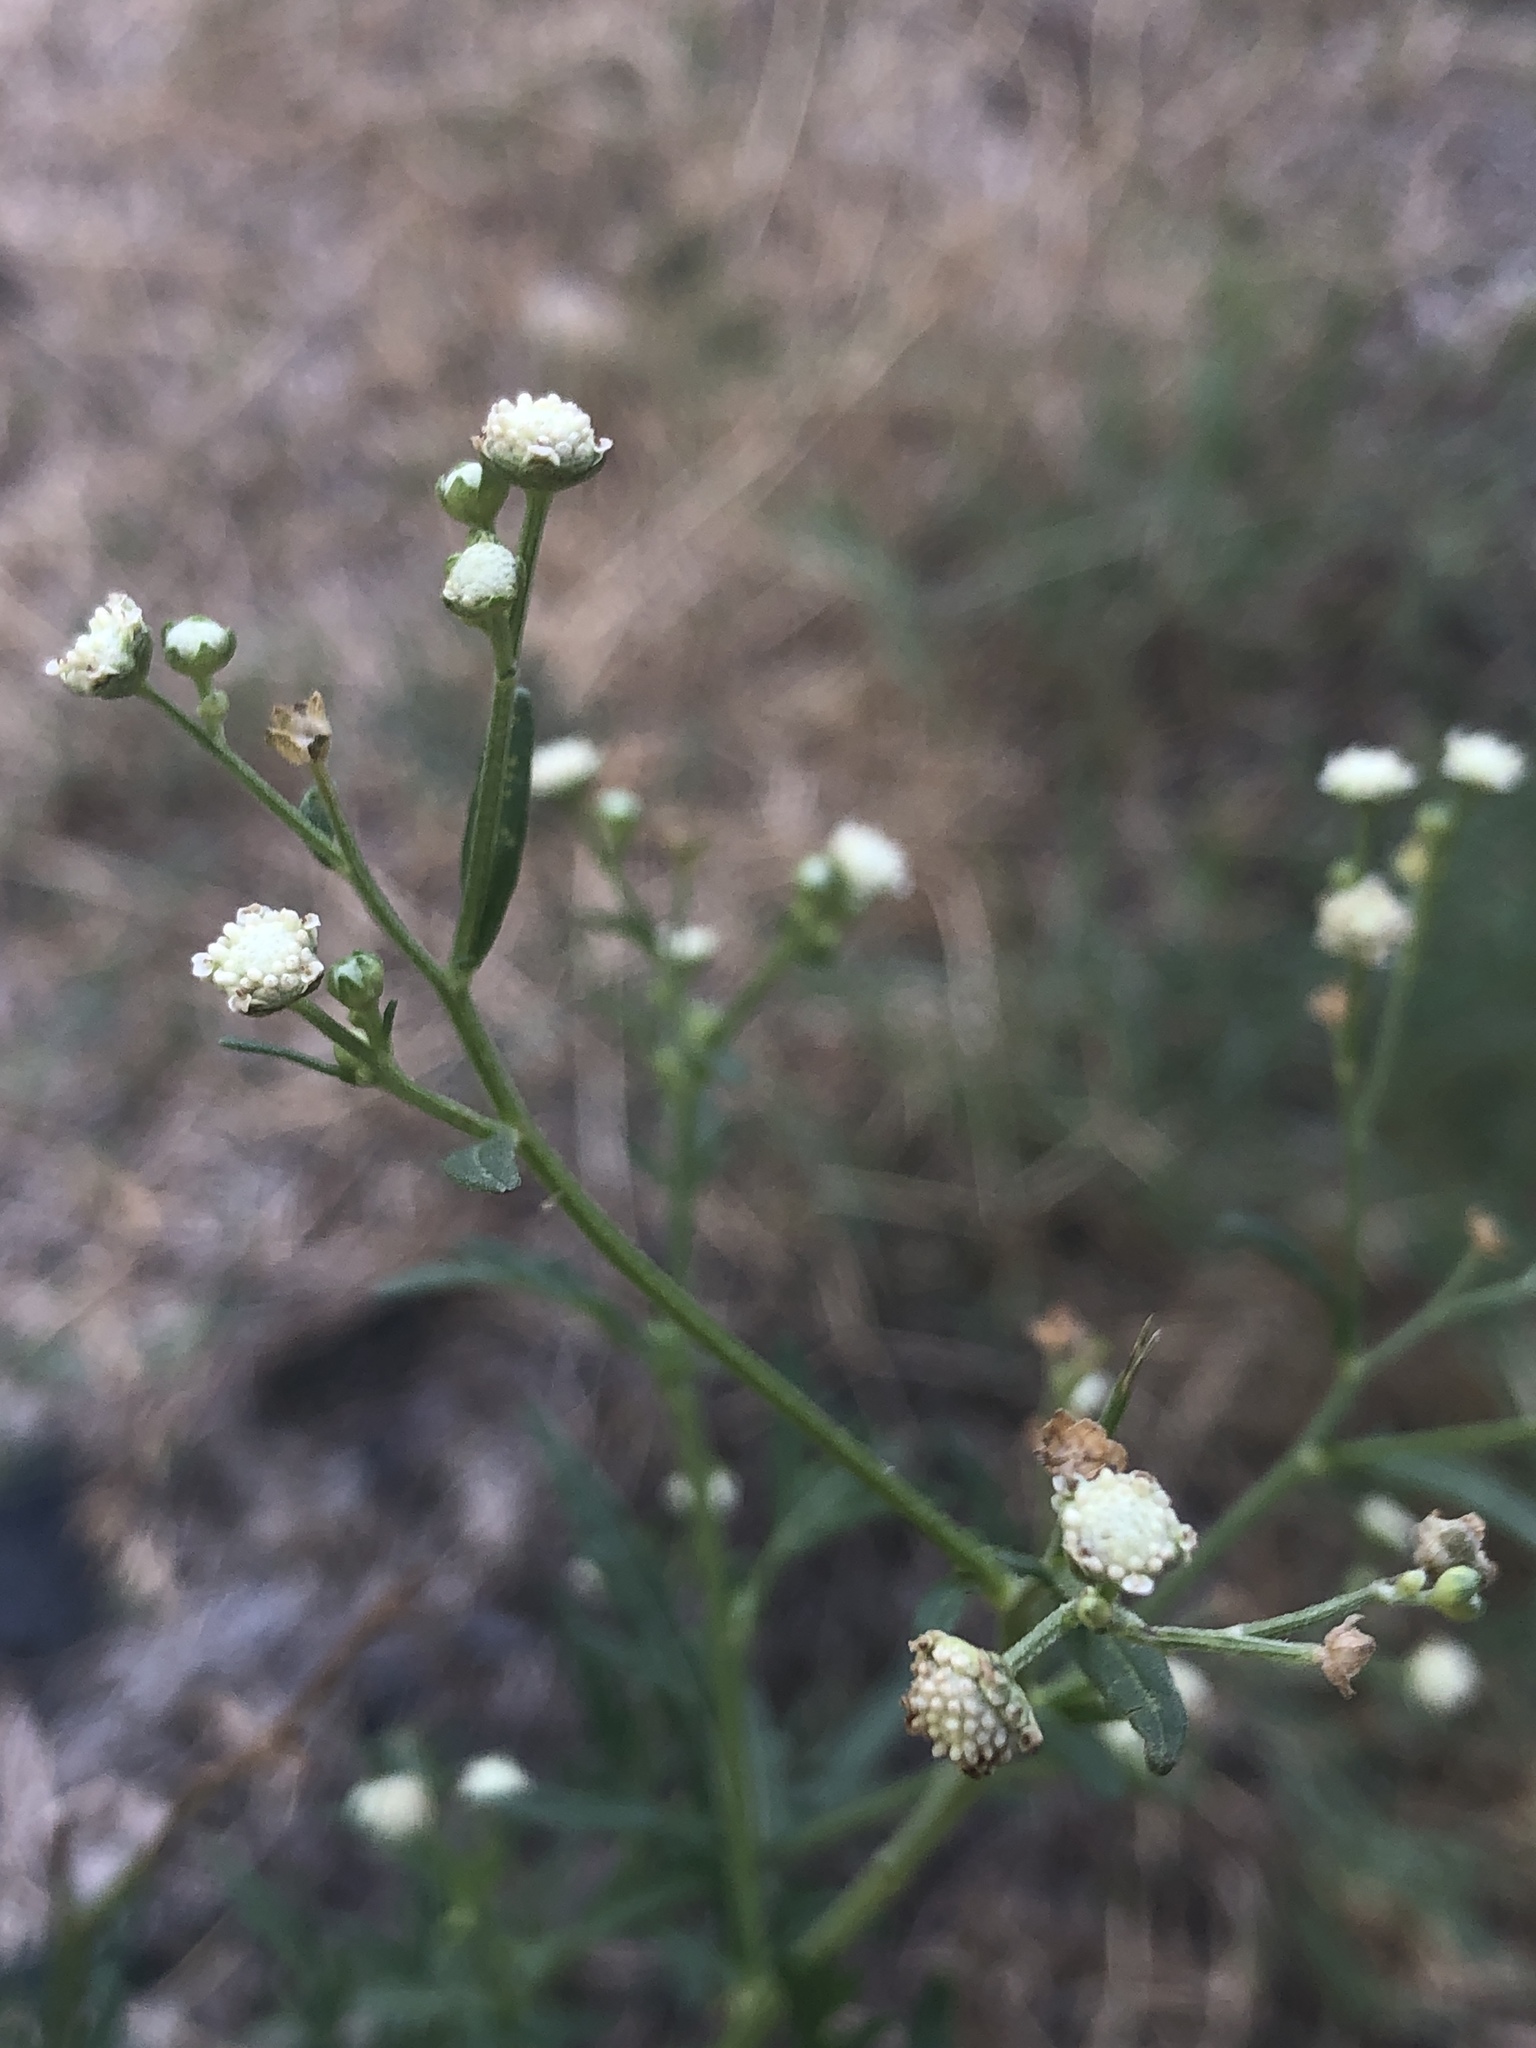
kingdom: Plantae
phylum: Tracheophyta
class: Magnoliopsida
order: Asterales
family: Asteraceae
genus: Parthenium
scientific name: Parthenium hysterophorus
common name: Santa maria feverfew
